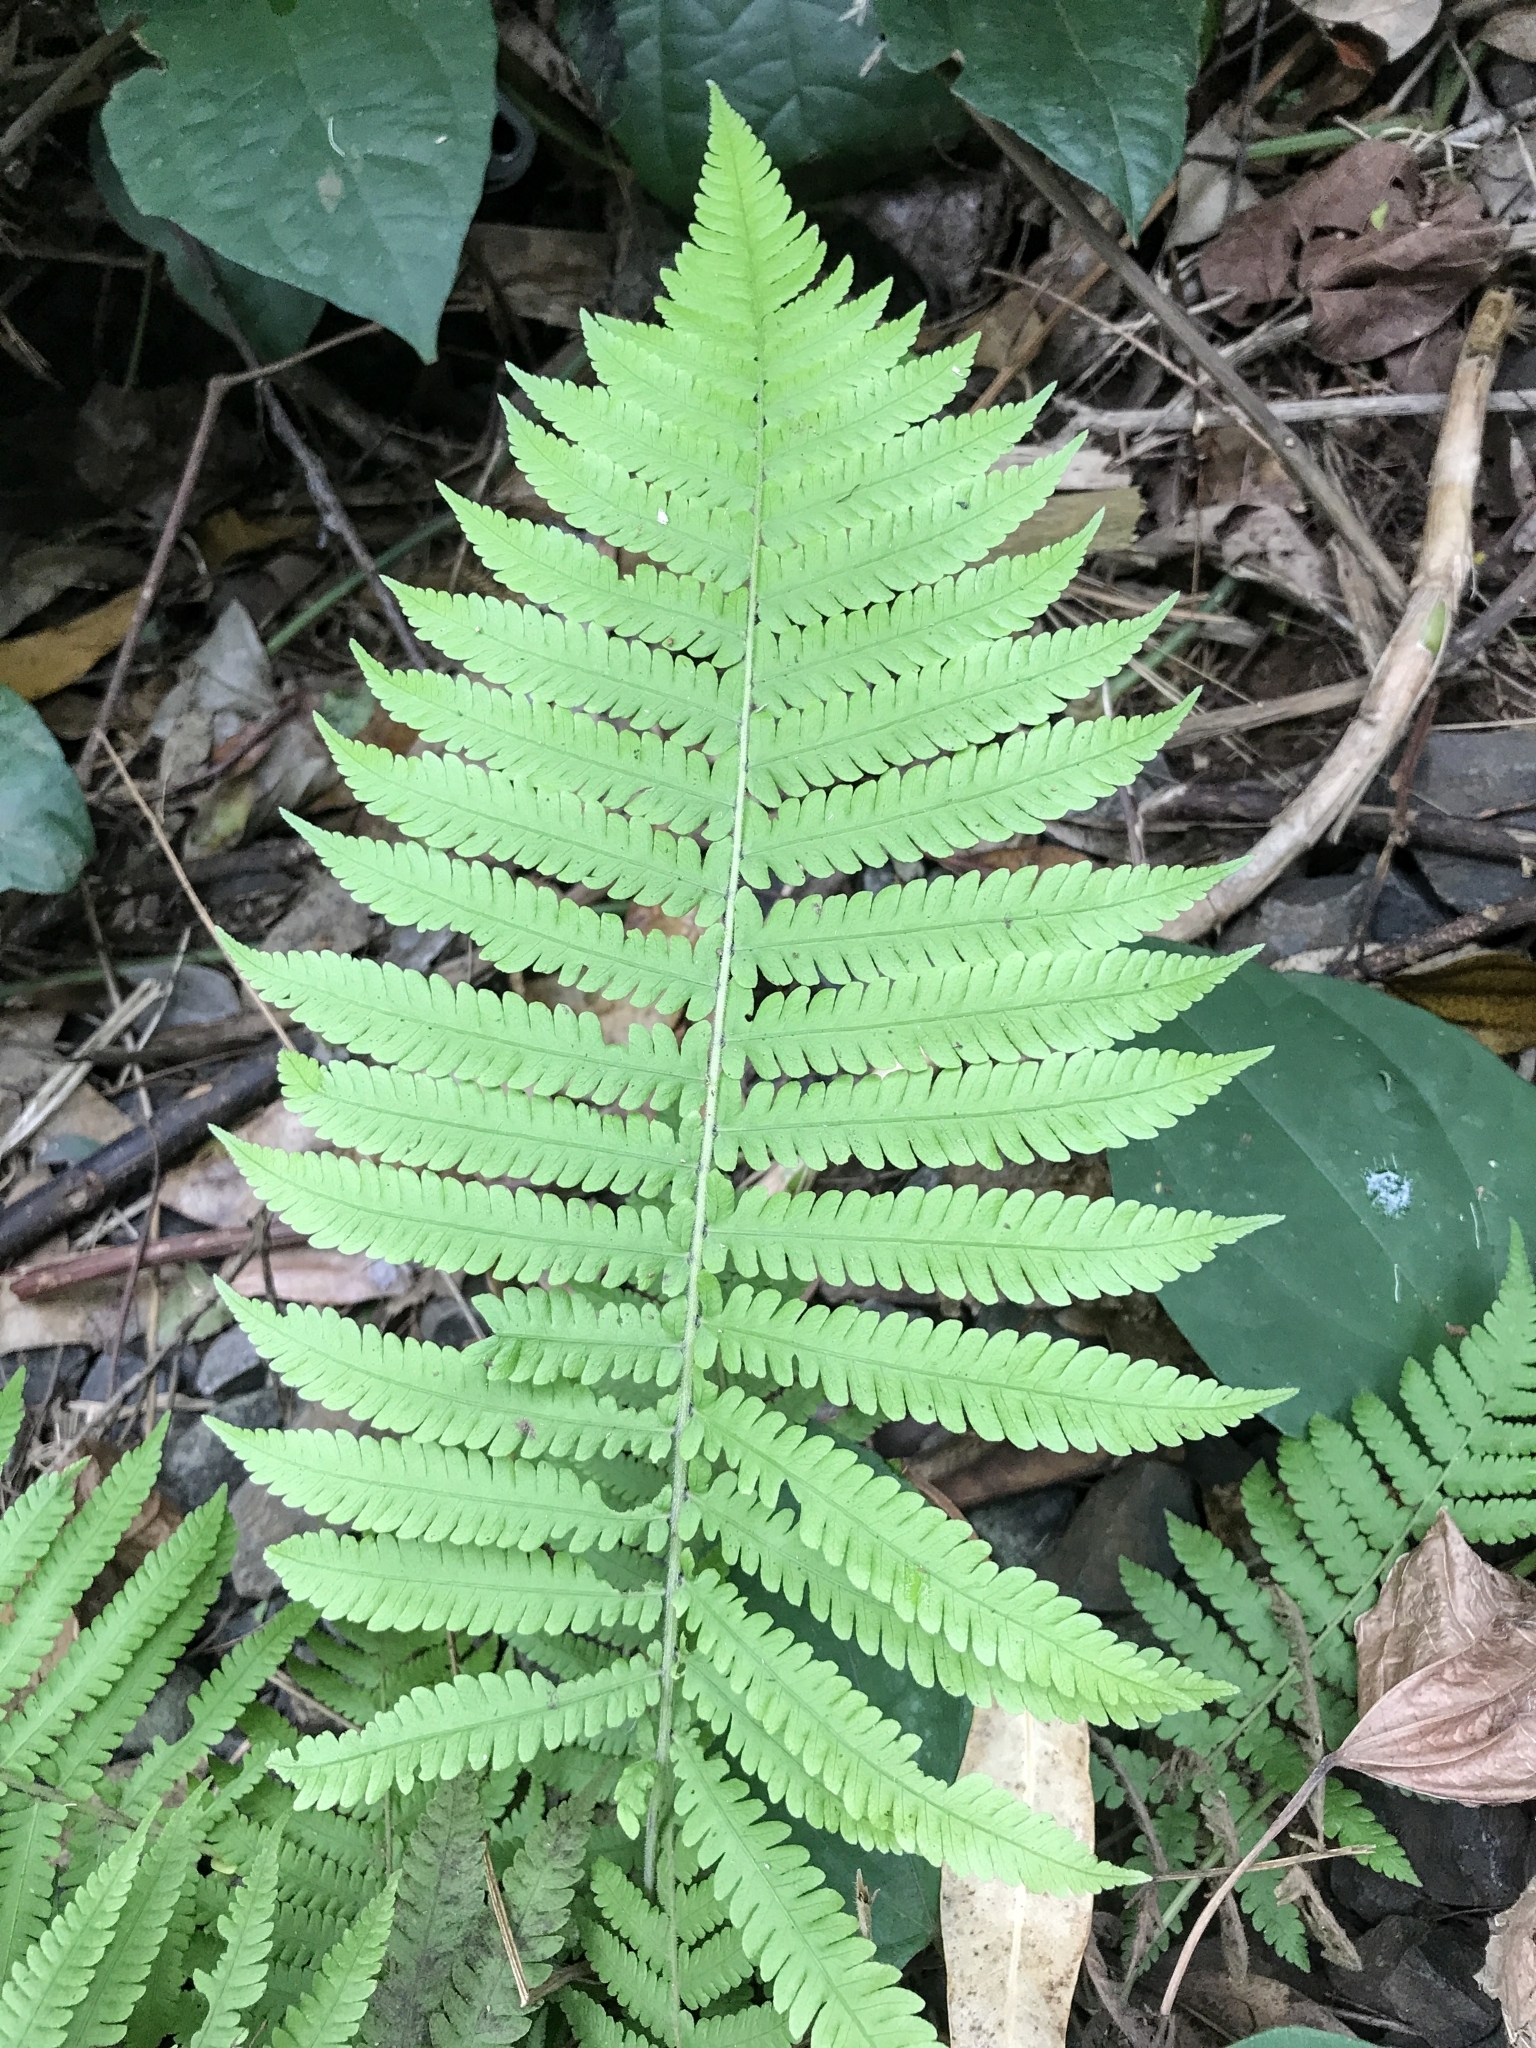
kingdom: Plantae
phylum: Tracheophyta
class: Polypodiopsida
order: Polypodiales
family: Thelypteridaceae
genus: Christella
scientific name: Christella parasitica
